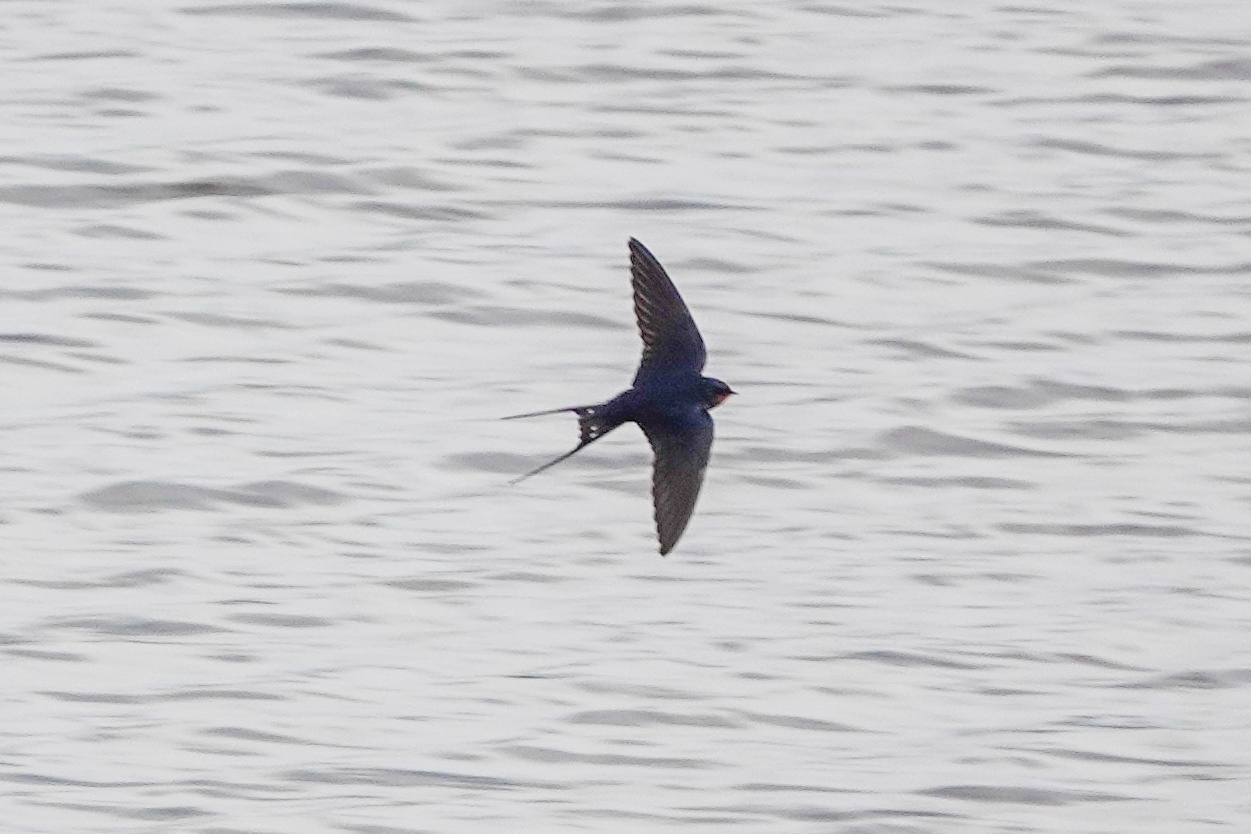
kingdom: Animalia
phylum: Chordata
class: Aves
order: Passeriformes
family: Hirundinidae
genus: Hirundo
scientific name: Hirundo rustica
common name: Barn swallow
